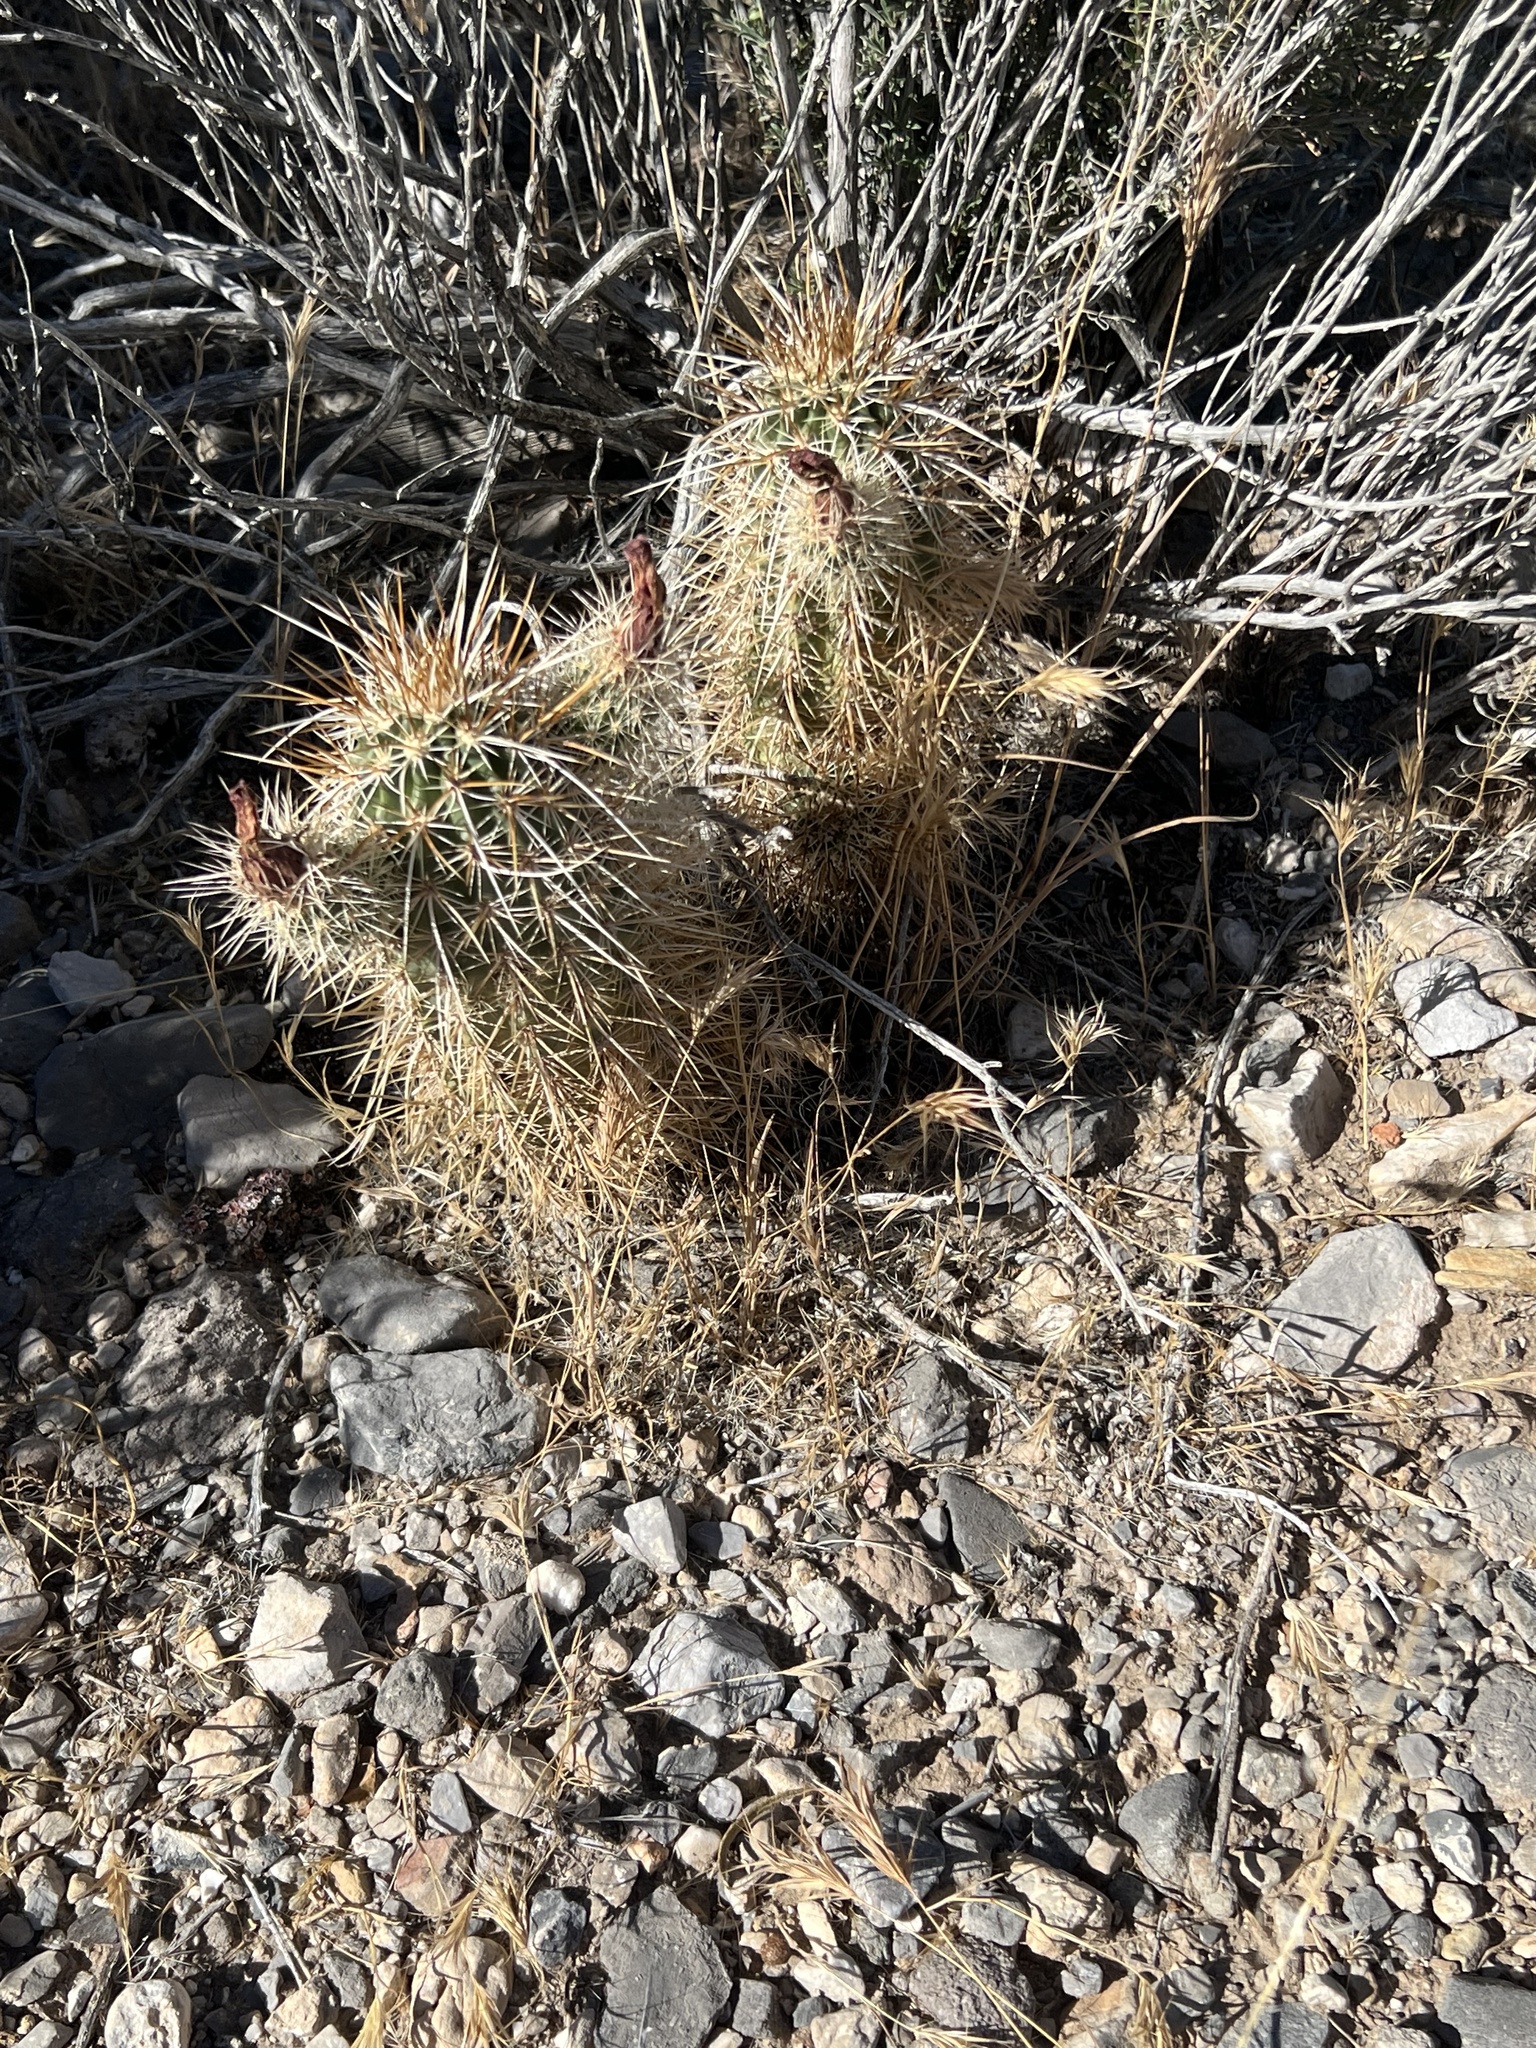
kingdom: Plantae
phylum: Tracheophyta
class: Magnoliopsida
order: Caryophyllales
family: Cactaceae
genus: Echinocereus
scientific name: Echinocereus engelmannii
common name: Engelmann's hedgehog cactus
